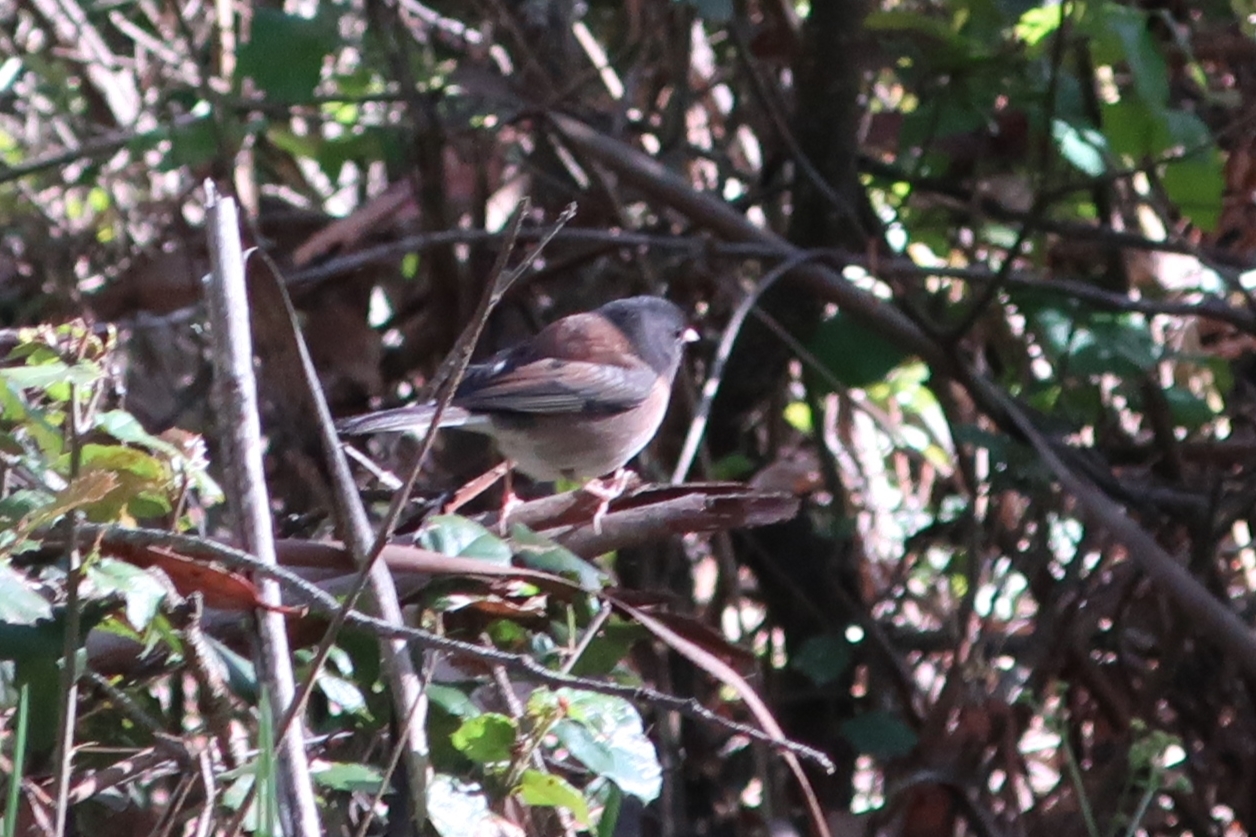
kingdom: Animalia
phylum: Chordata
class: Aves
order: Passeriformes
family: Passerellidae
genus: Junco
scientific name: Junco hyemalis
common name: Dark-eyed junco
